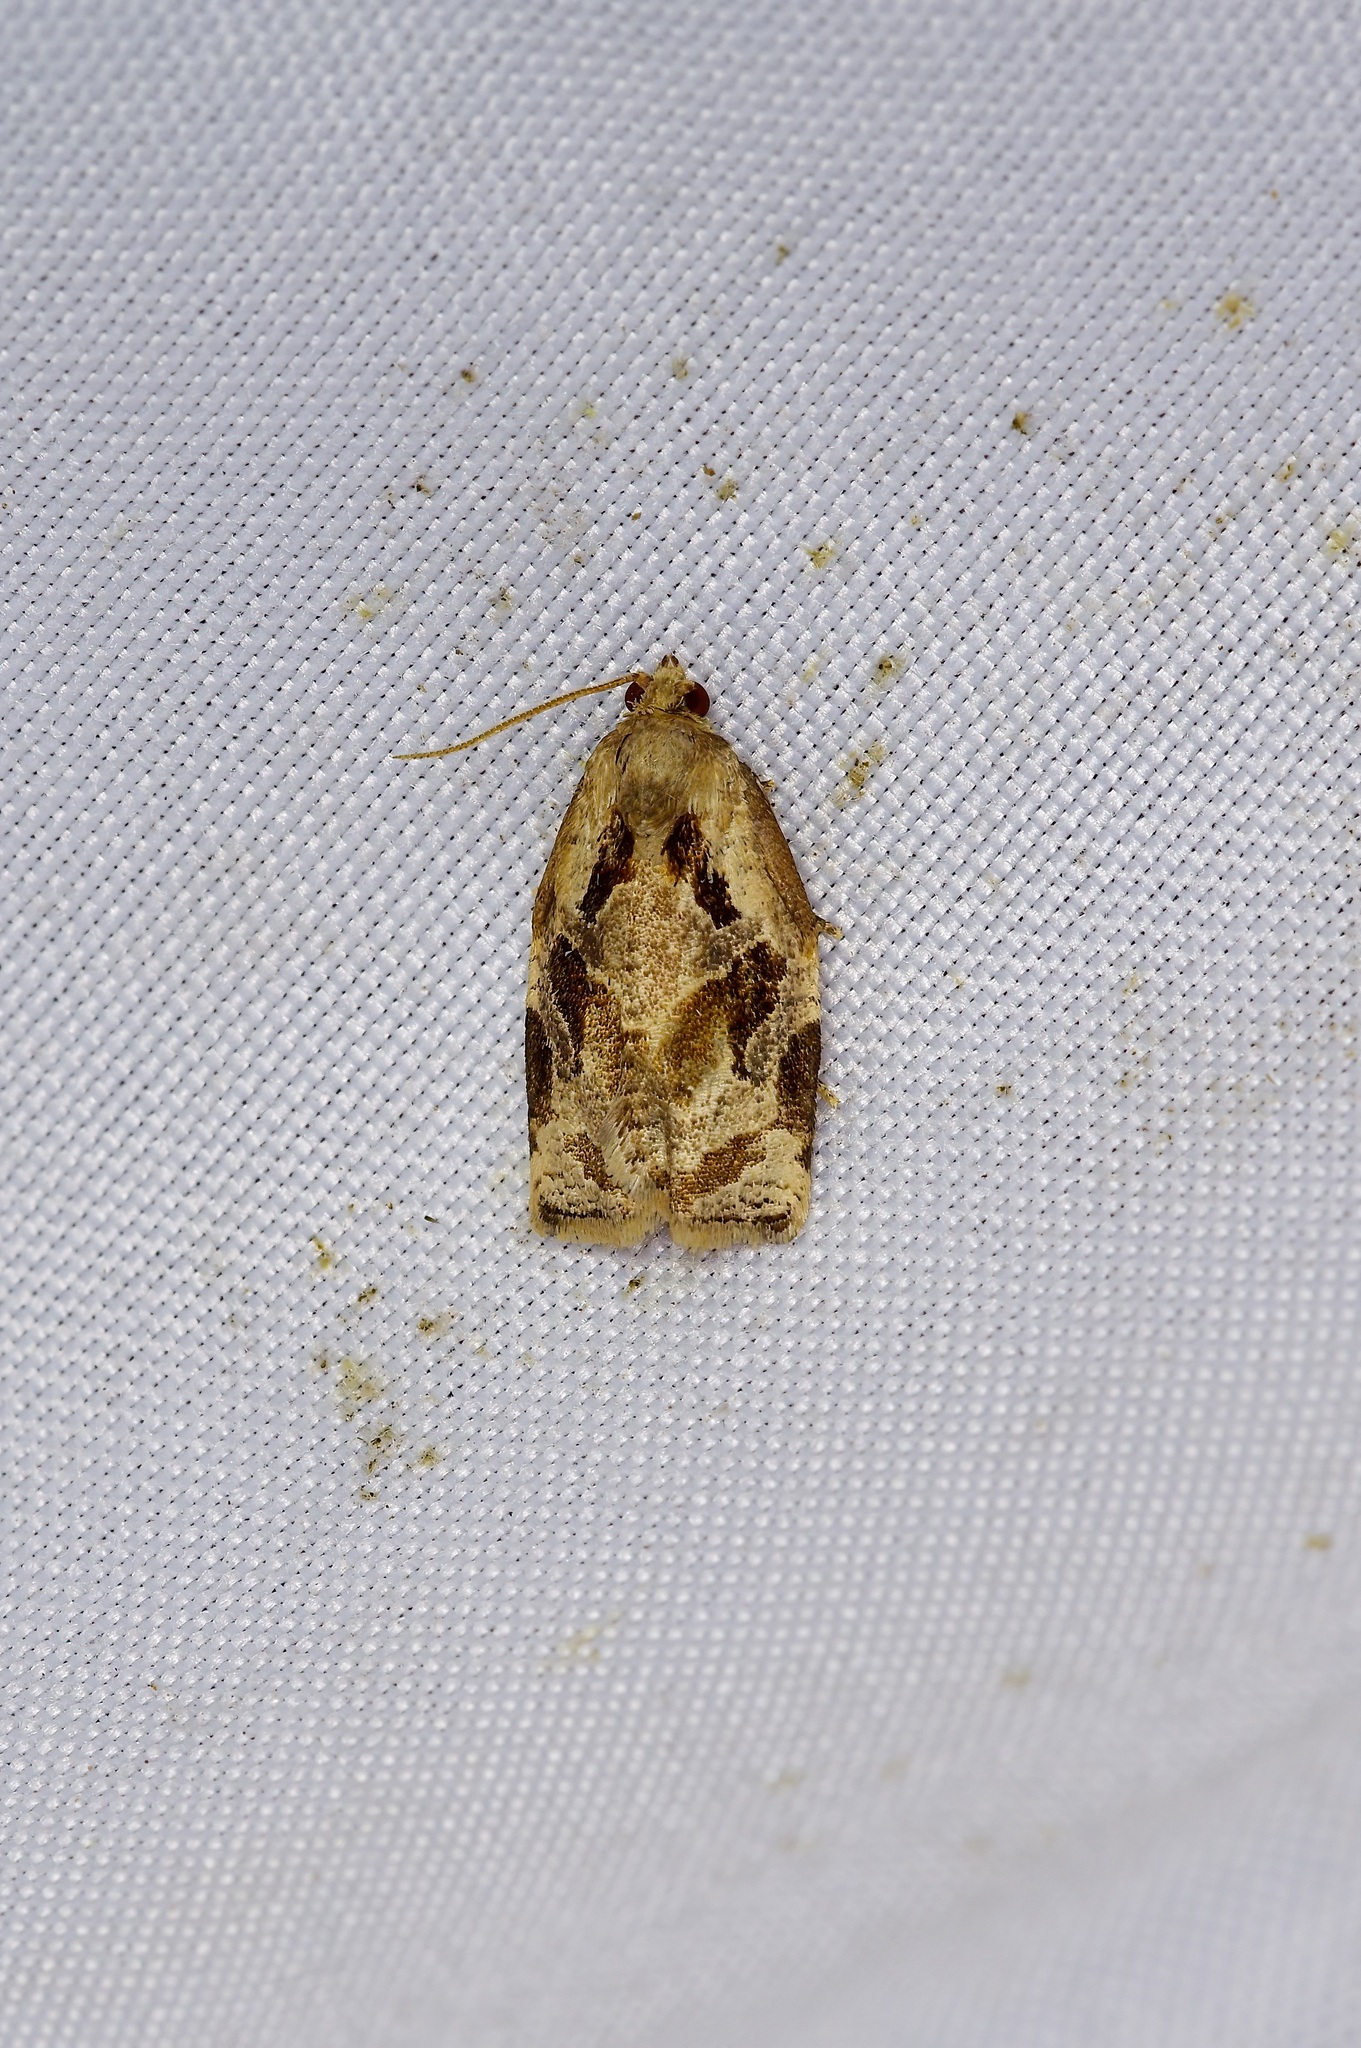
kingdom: Animalia
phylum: Arthropoda
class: Insecta
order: Lepidoptera
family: Tortricidae
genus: Archips
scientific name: Archips grisea
